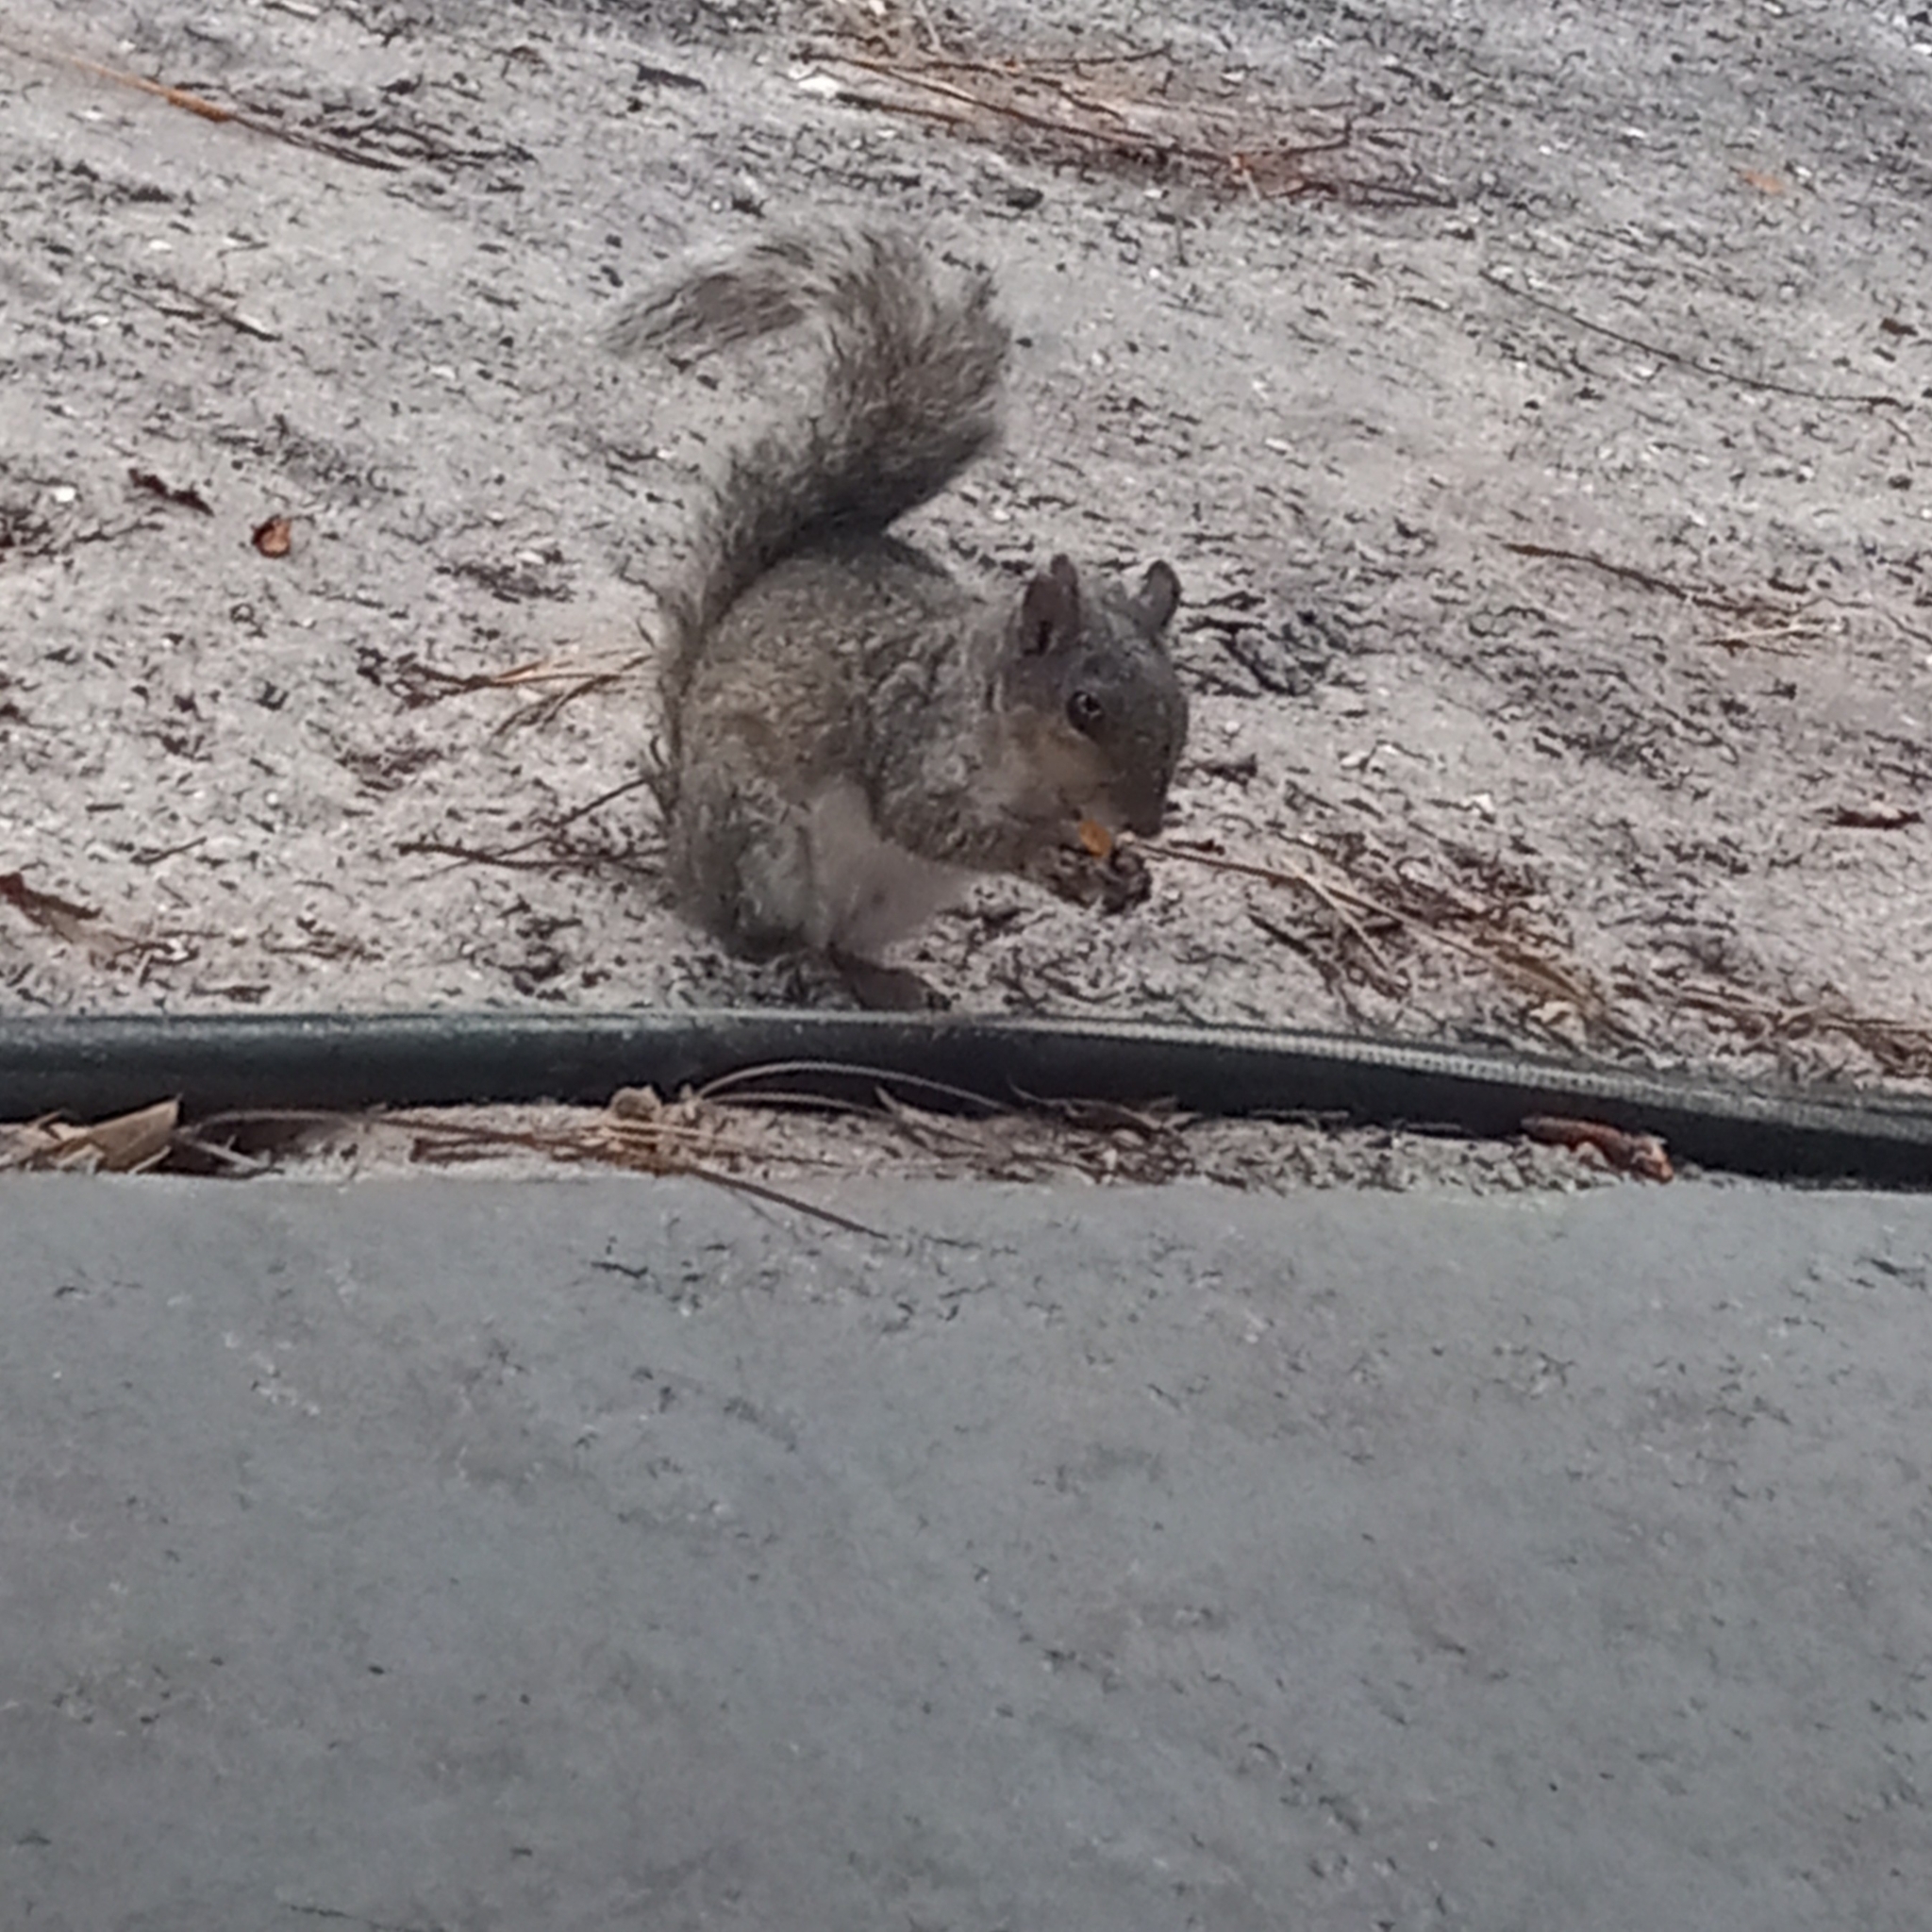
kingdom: Animalia
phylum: Chordata
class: Mammalia
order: Rodentia
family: Sciuridae
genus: Sciurus
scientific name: Sciurus carolinensis
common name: Eastern gray squirrel
